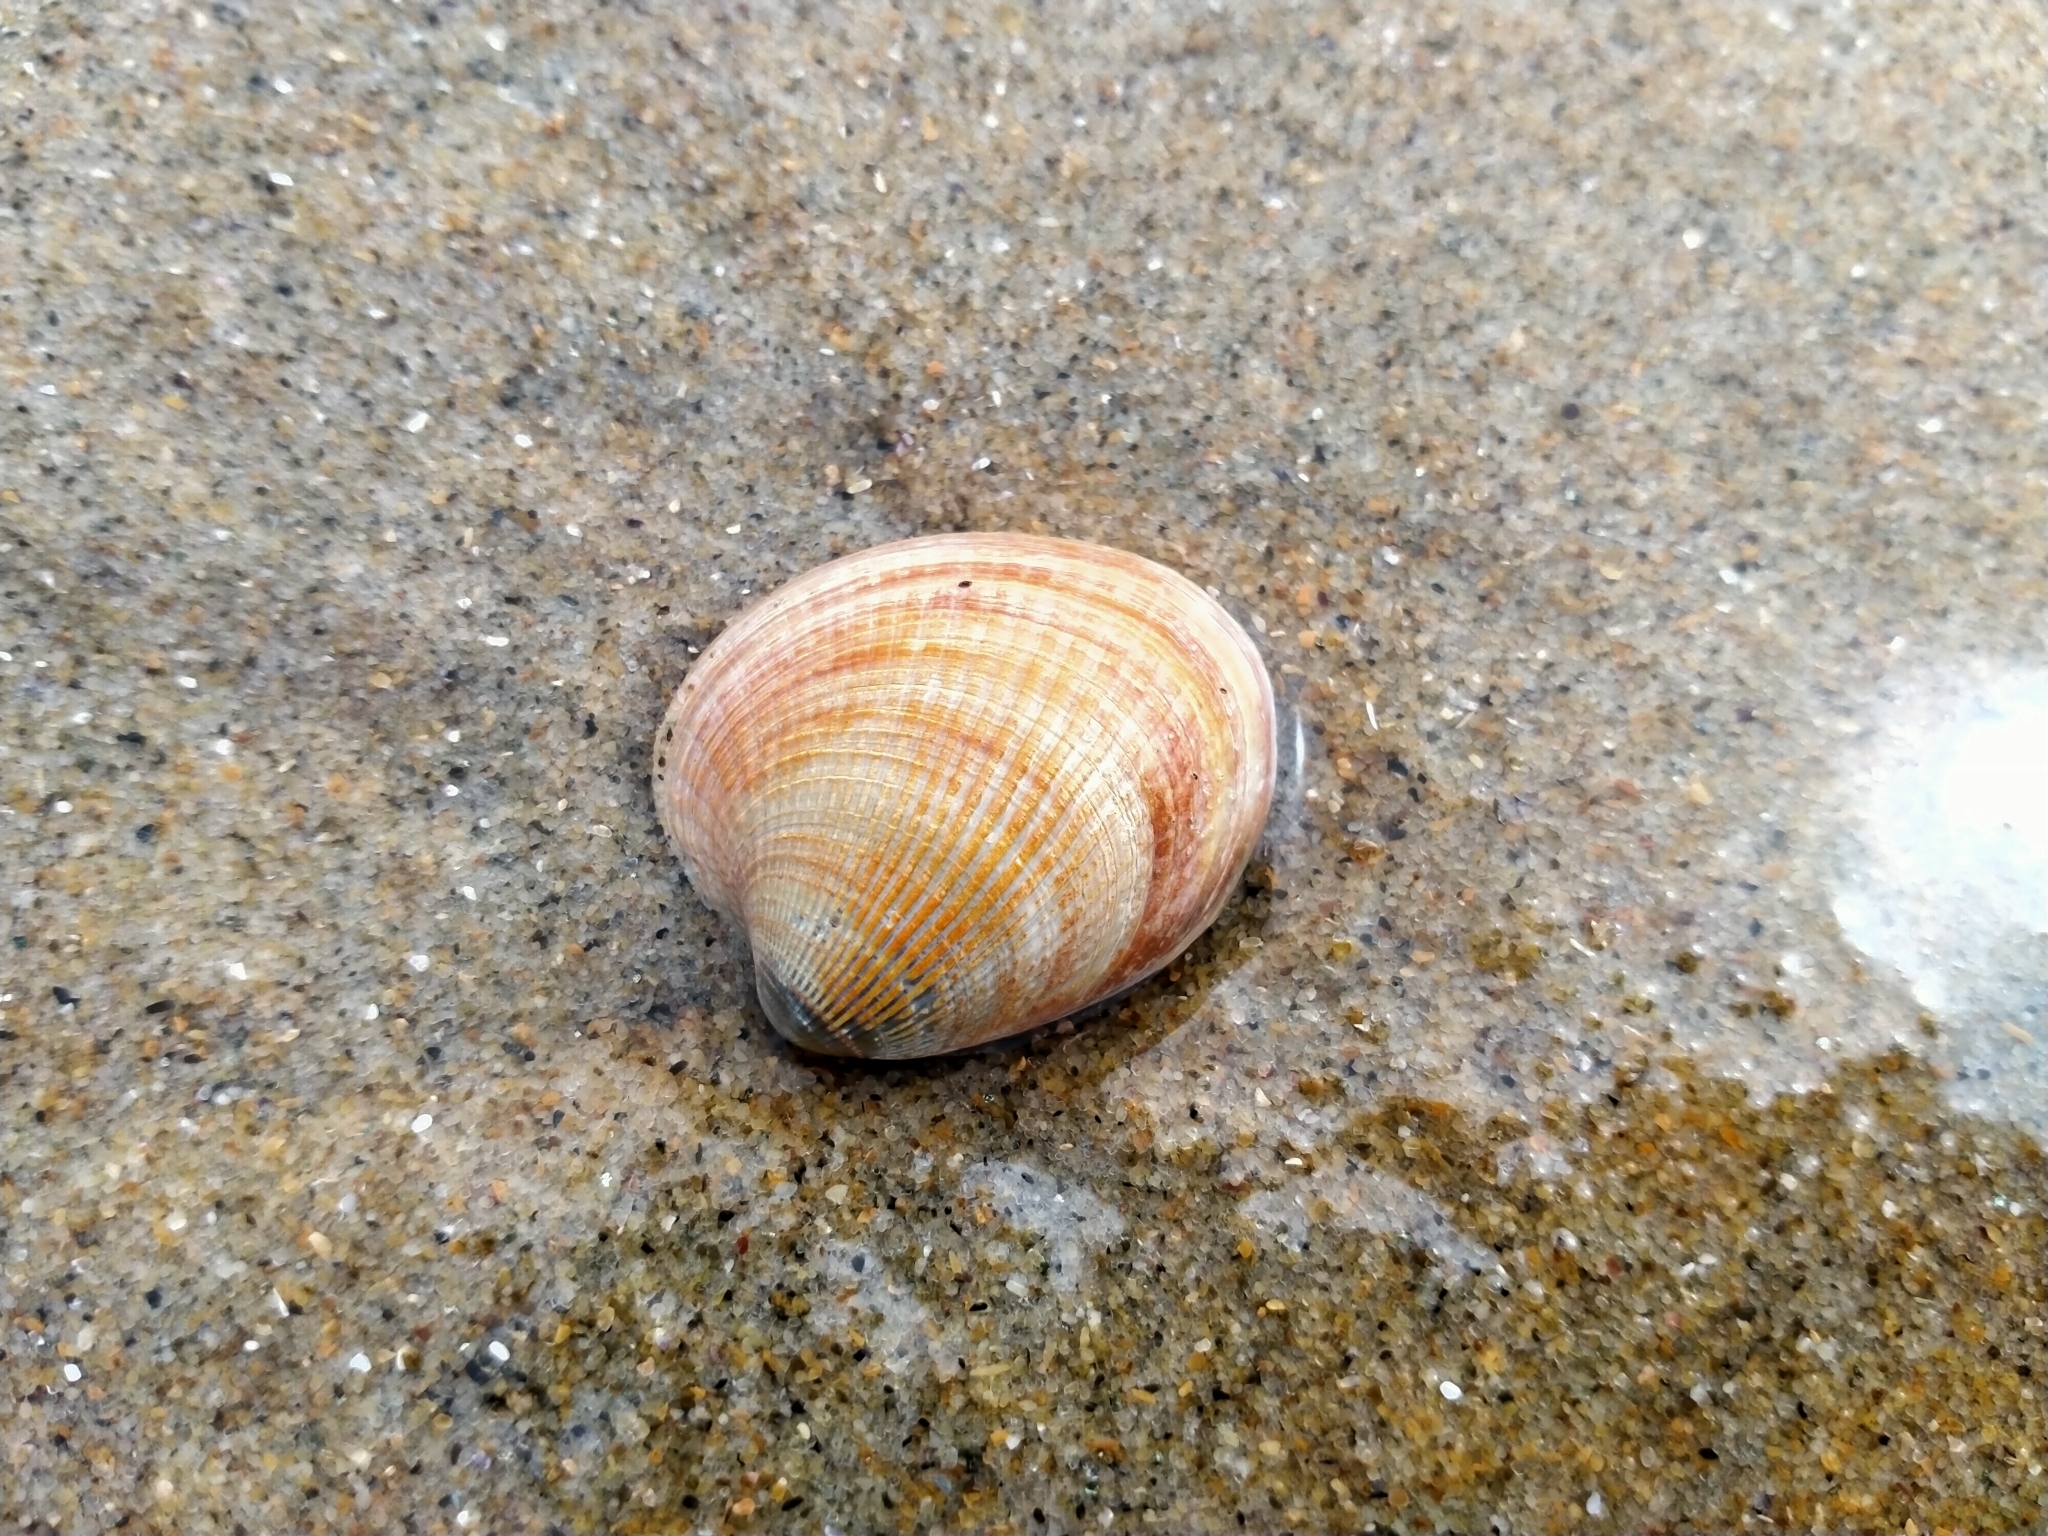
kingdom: Animalia
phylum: Mollusca
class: Bivalvia
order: Venerida
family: Veneridae
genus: Austrovenus
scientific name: Austrovenus stutchburyi
